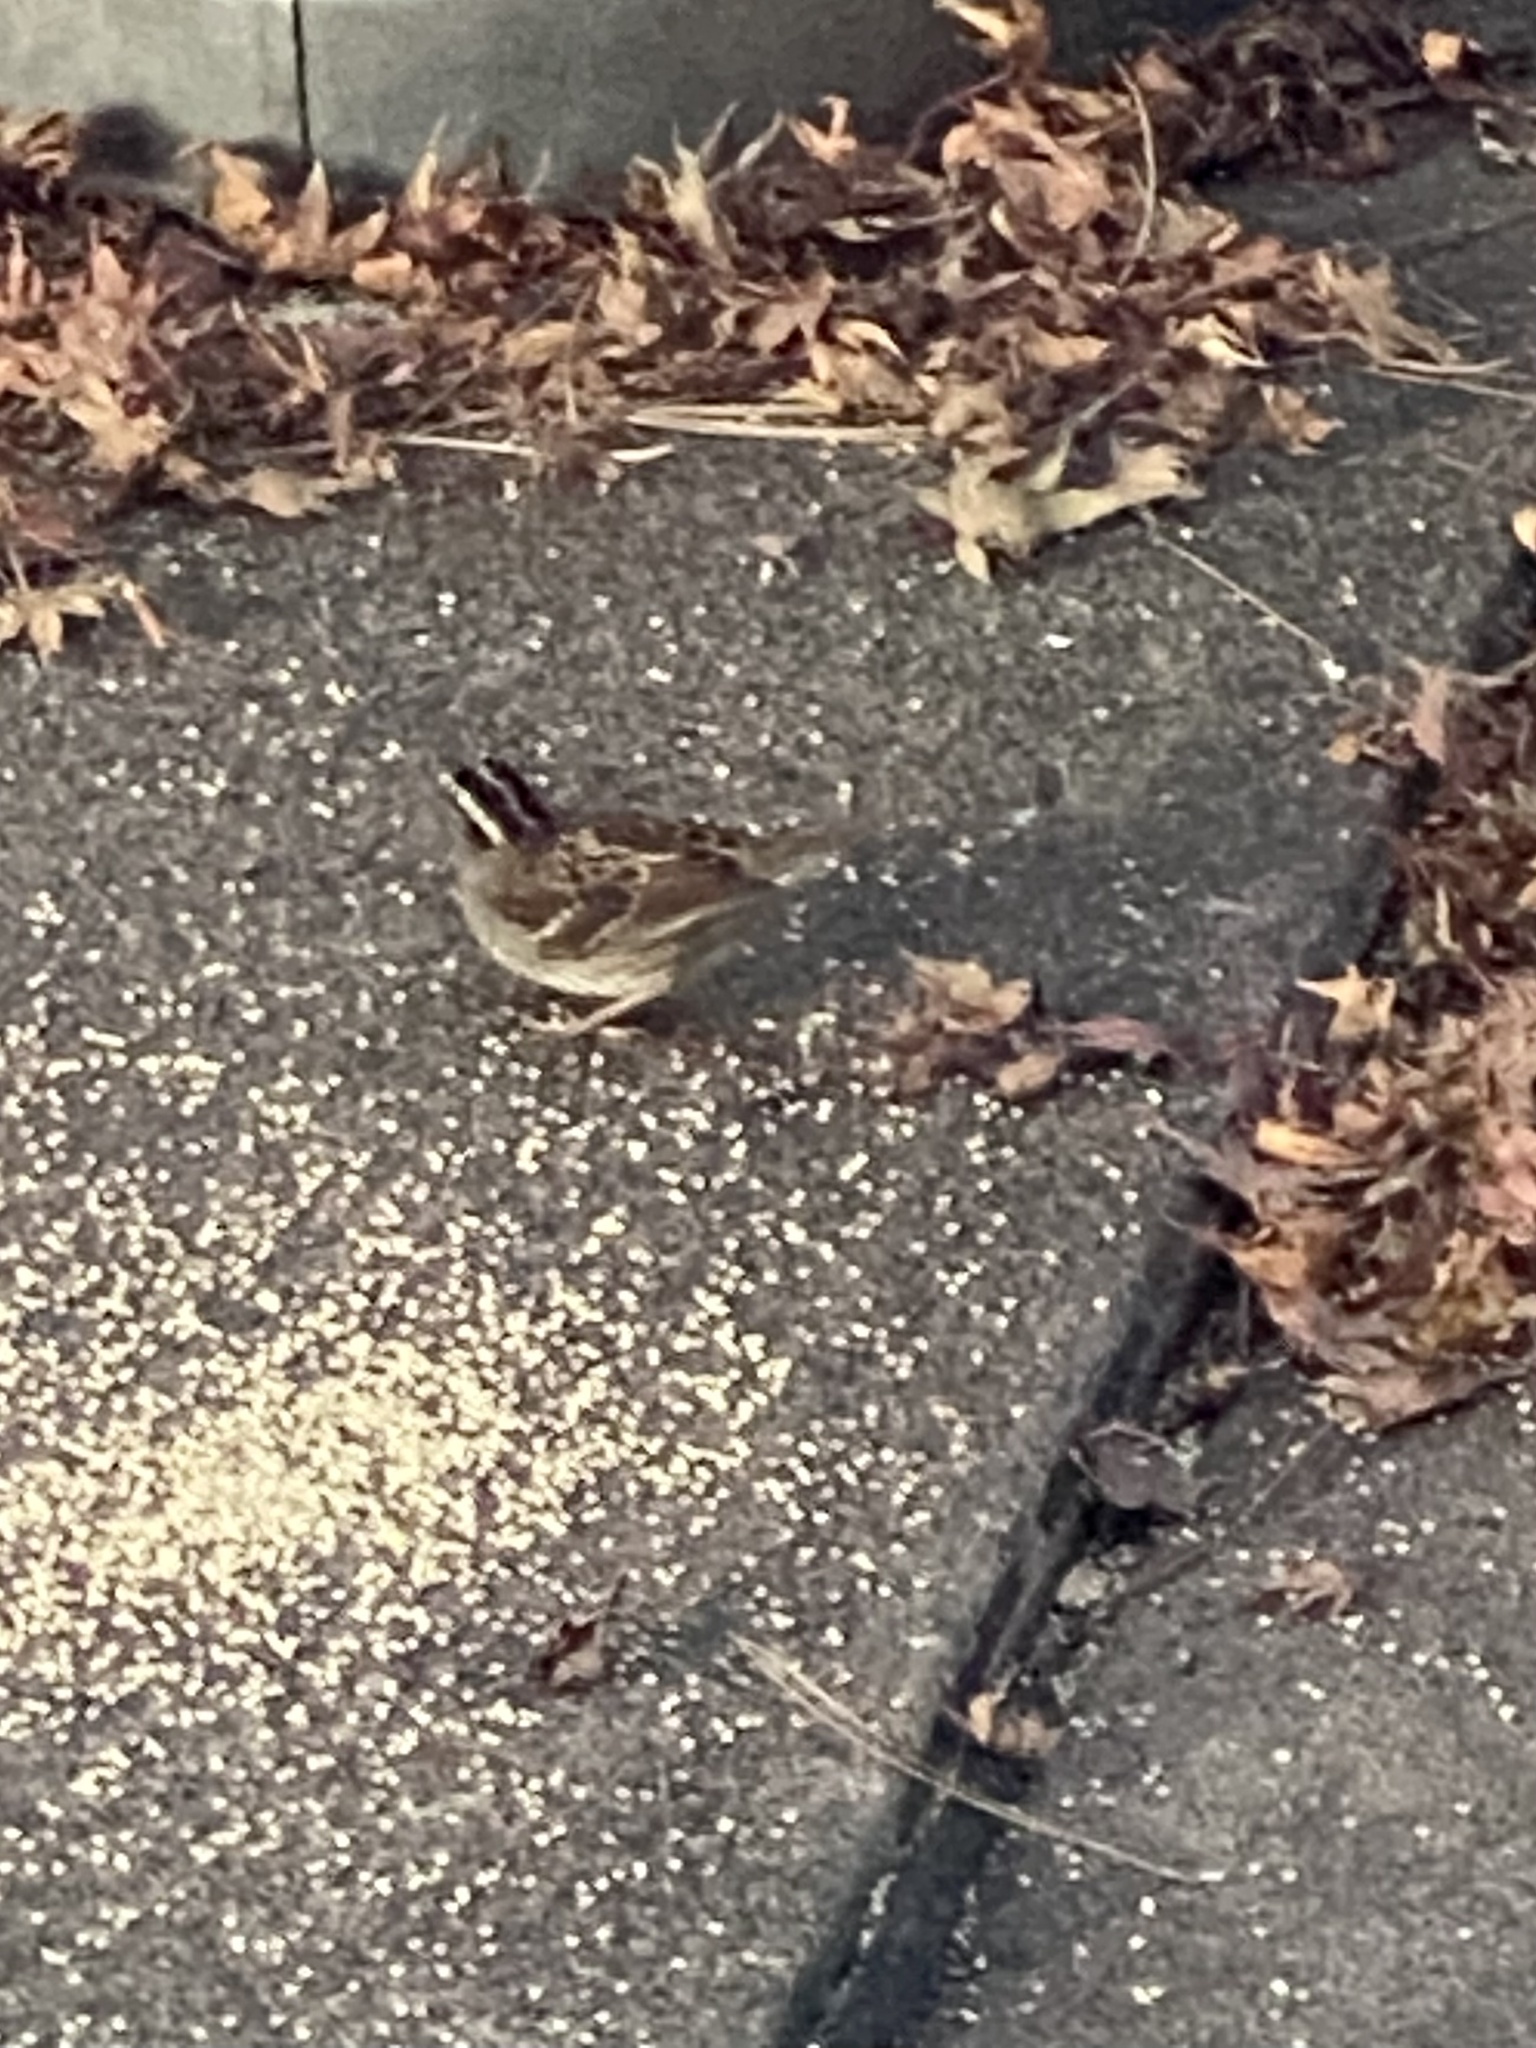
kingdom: Animalia
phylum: Chordata
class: Aves
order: Passeriformes
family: Passerellidae
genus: Zonotrichia
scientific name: Zonotrichia albicollis
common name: White-throated sparrow
